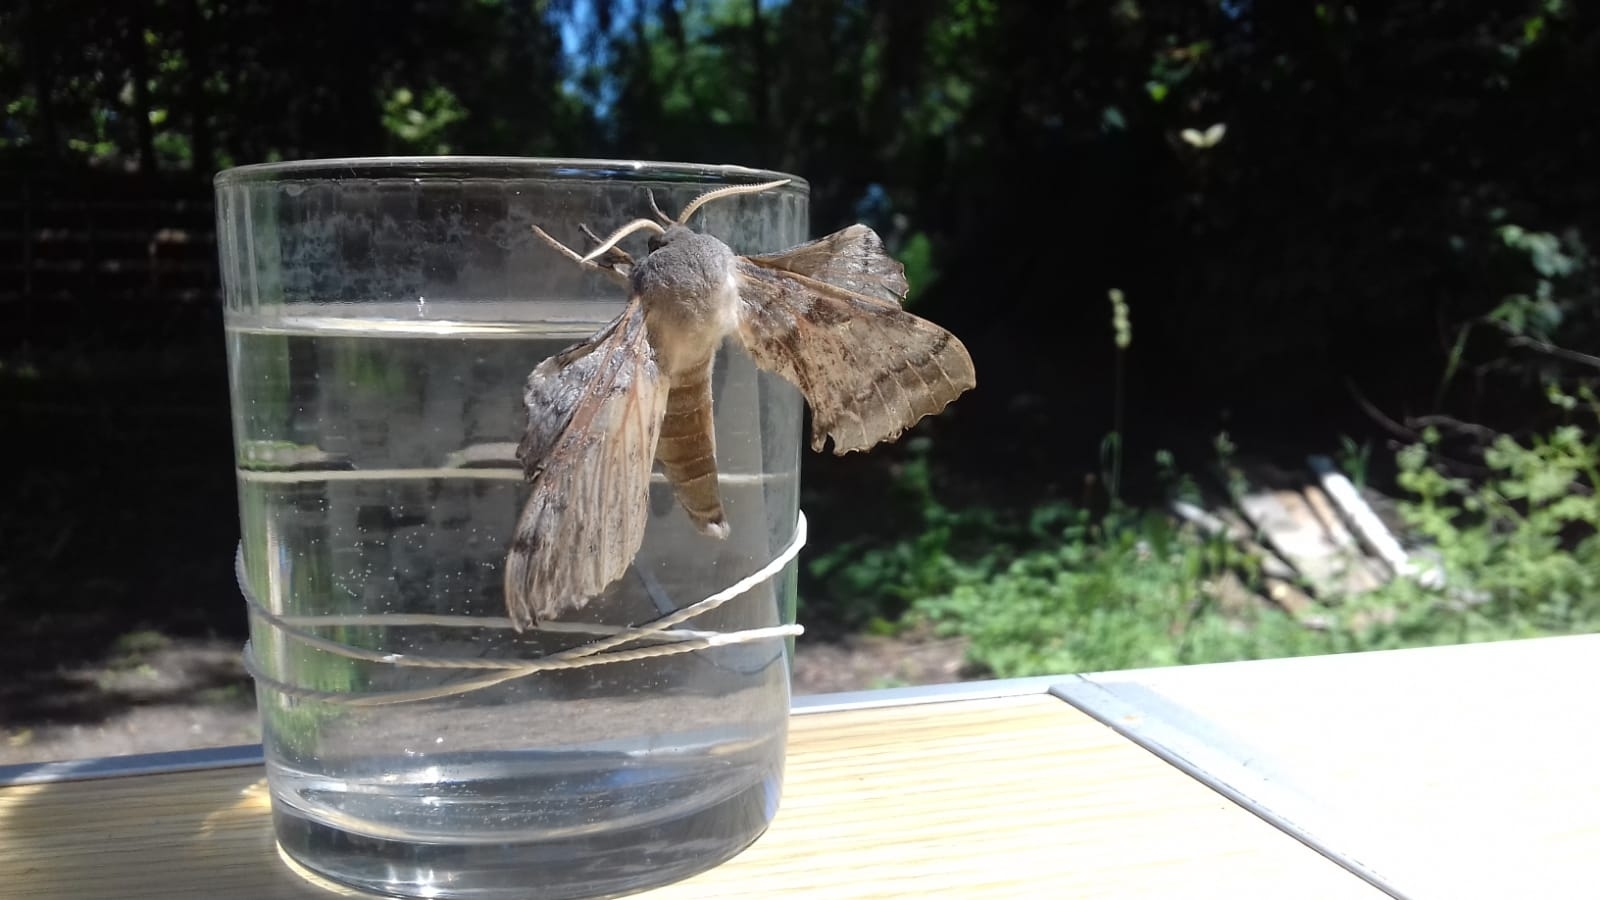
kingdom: Animalia
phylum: Arthropoda
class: Insecta
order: Lepidoptera
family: Sphingidae
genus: Laothoe
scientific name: Laothoe populi
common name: Poplar hawk-moth
